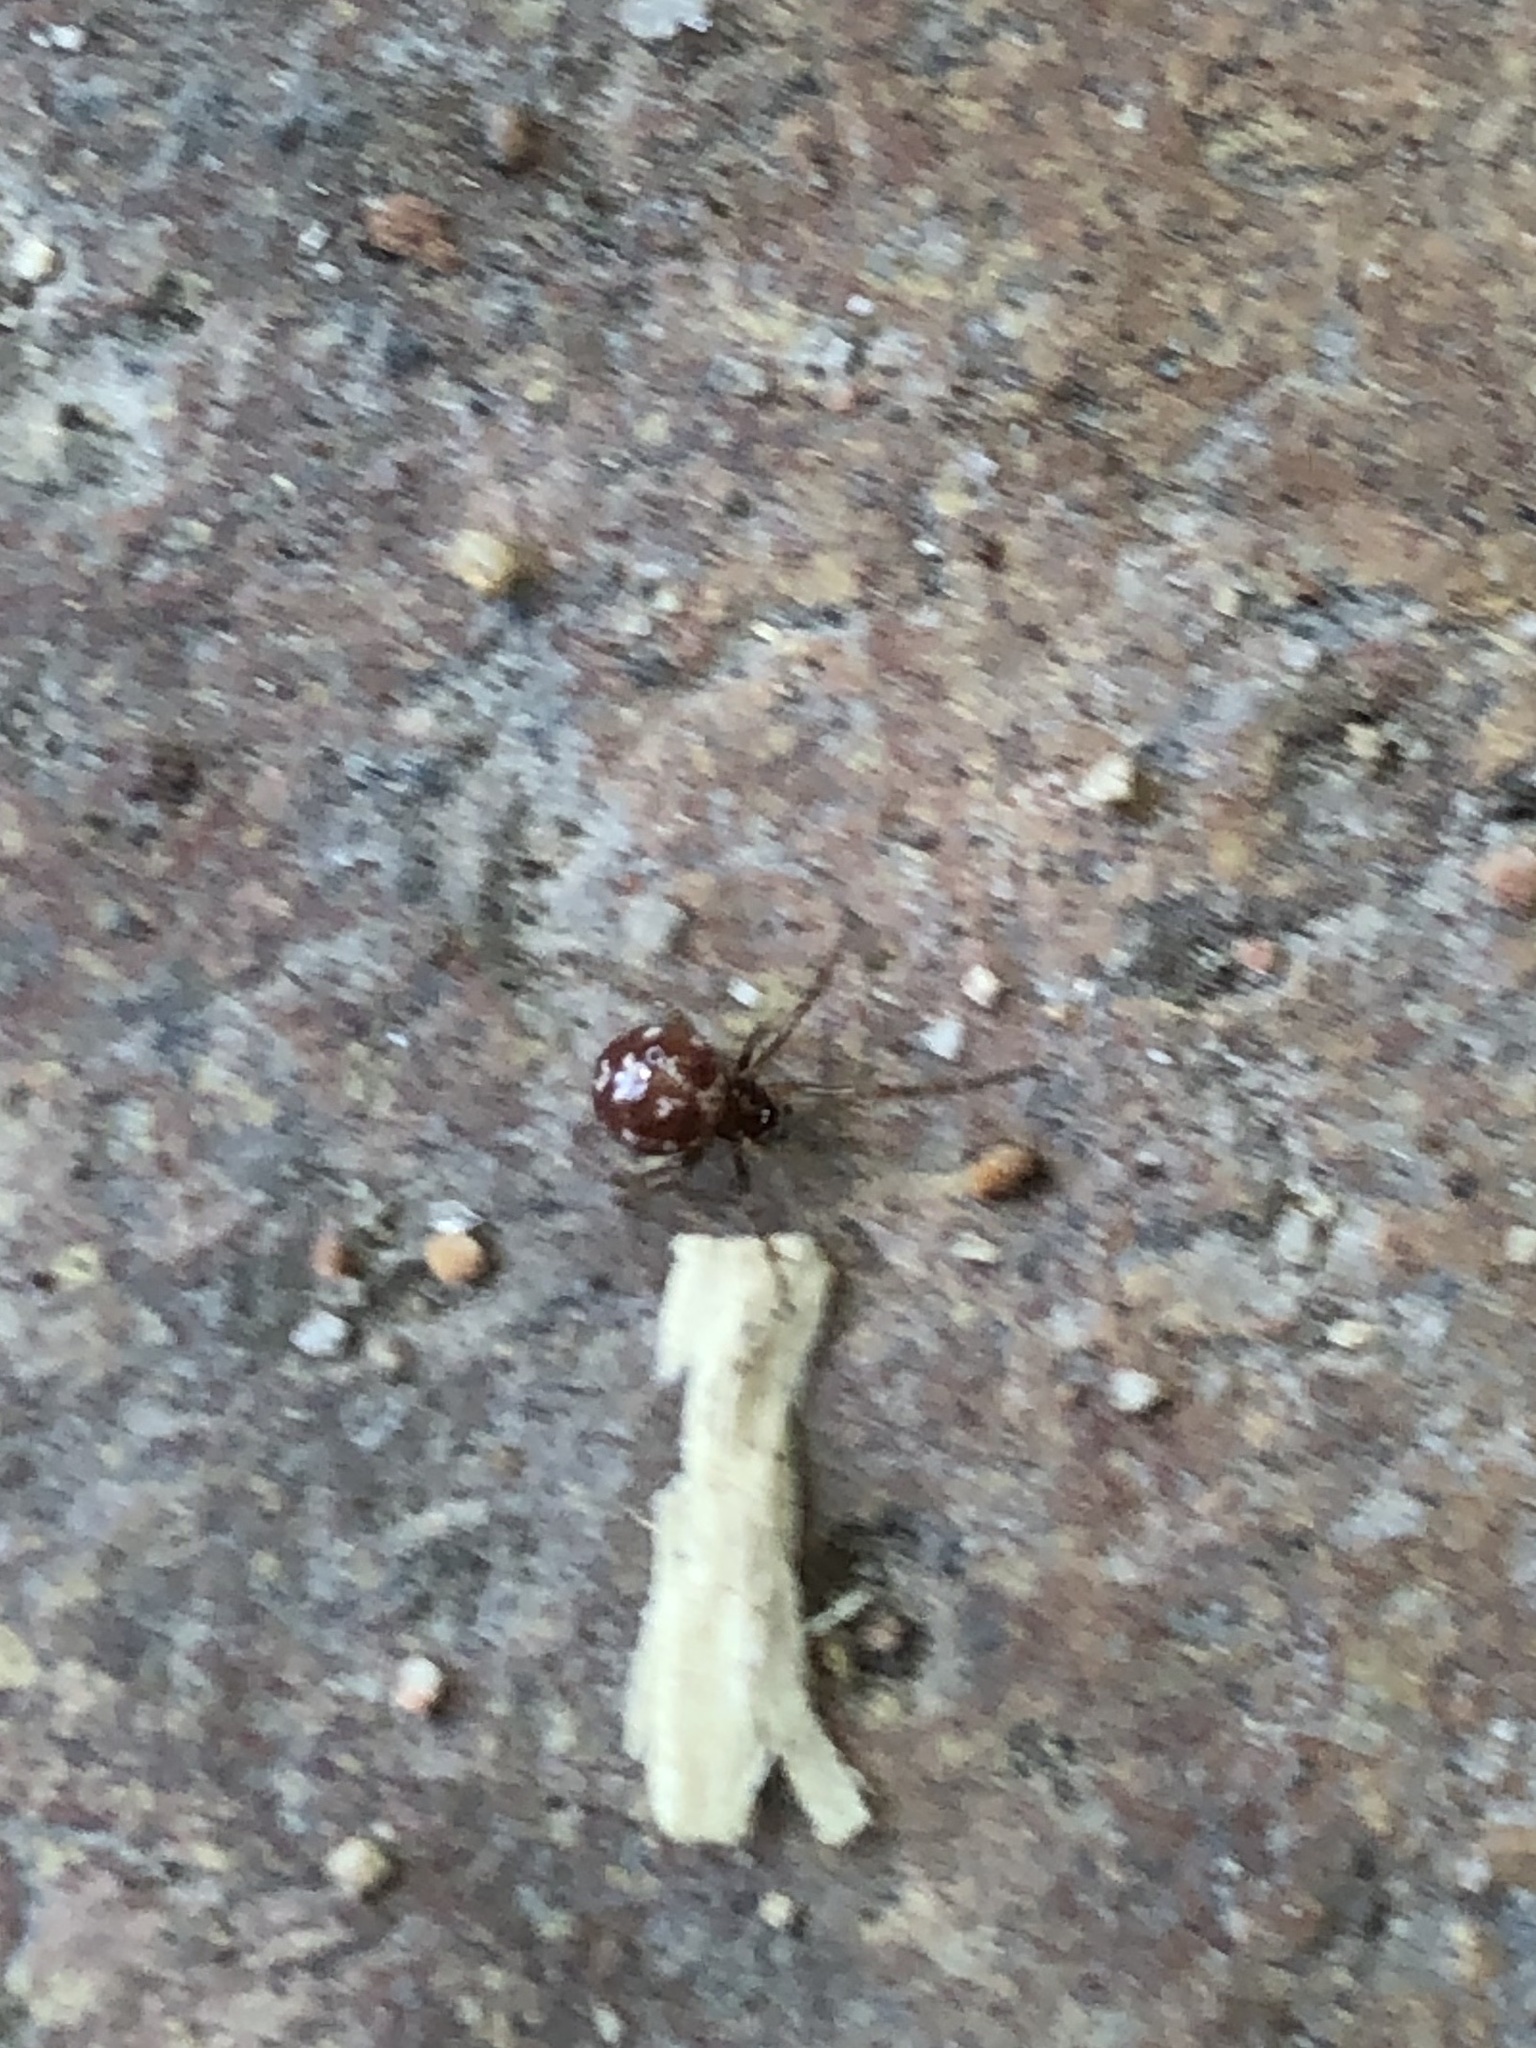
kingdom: Animalia
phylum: Arthropoda
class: Arachnida
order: Araneae
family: Theridiidae
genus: Steatoda
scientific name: Steatoda triangulosa
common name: Triangulate bud spider
